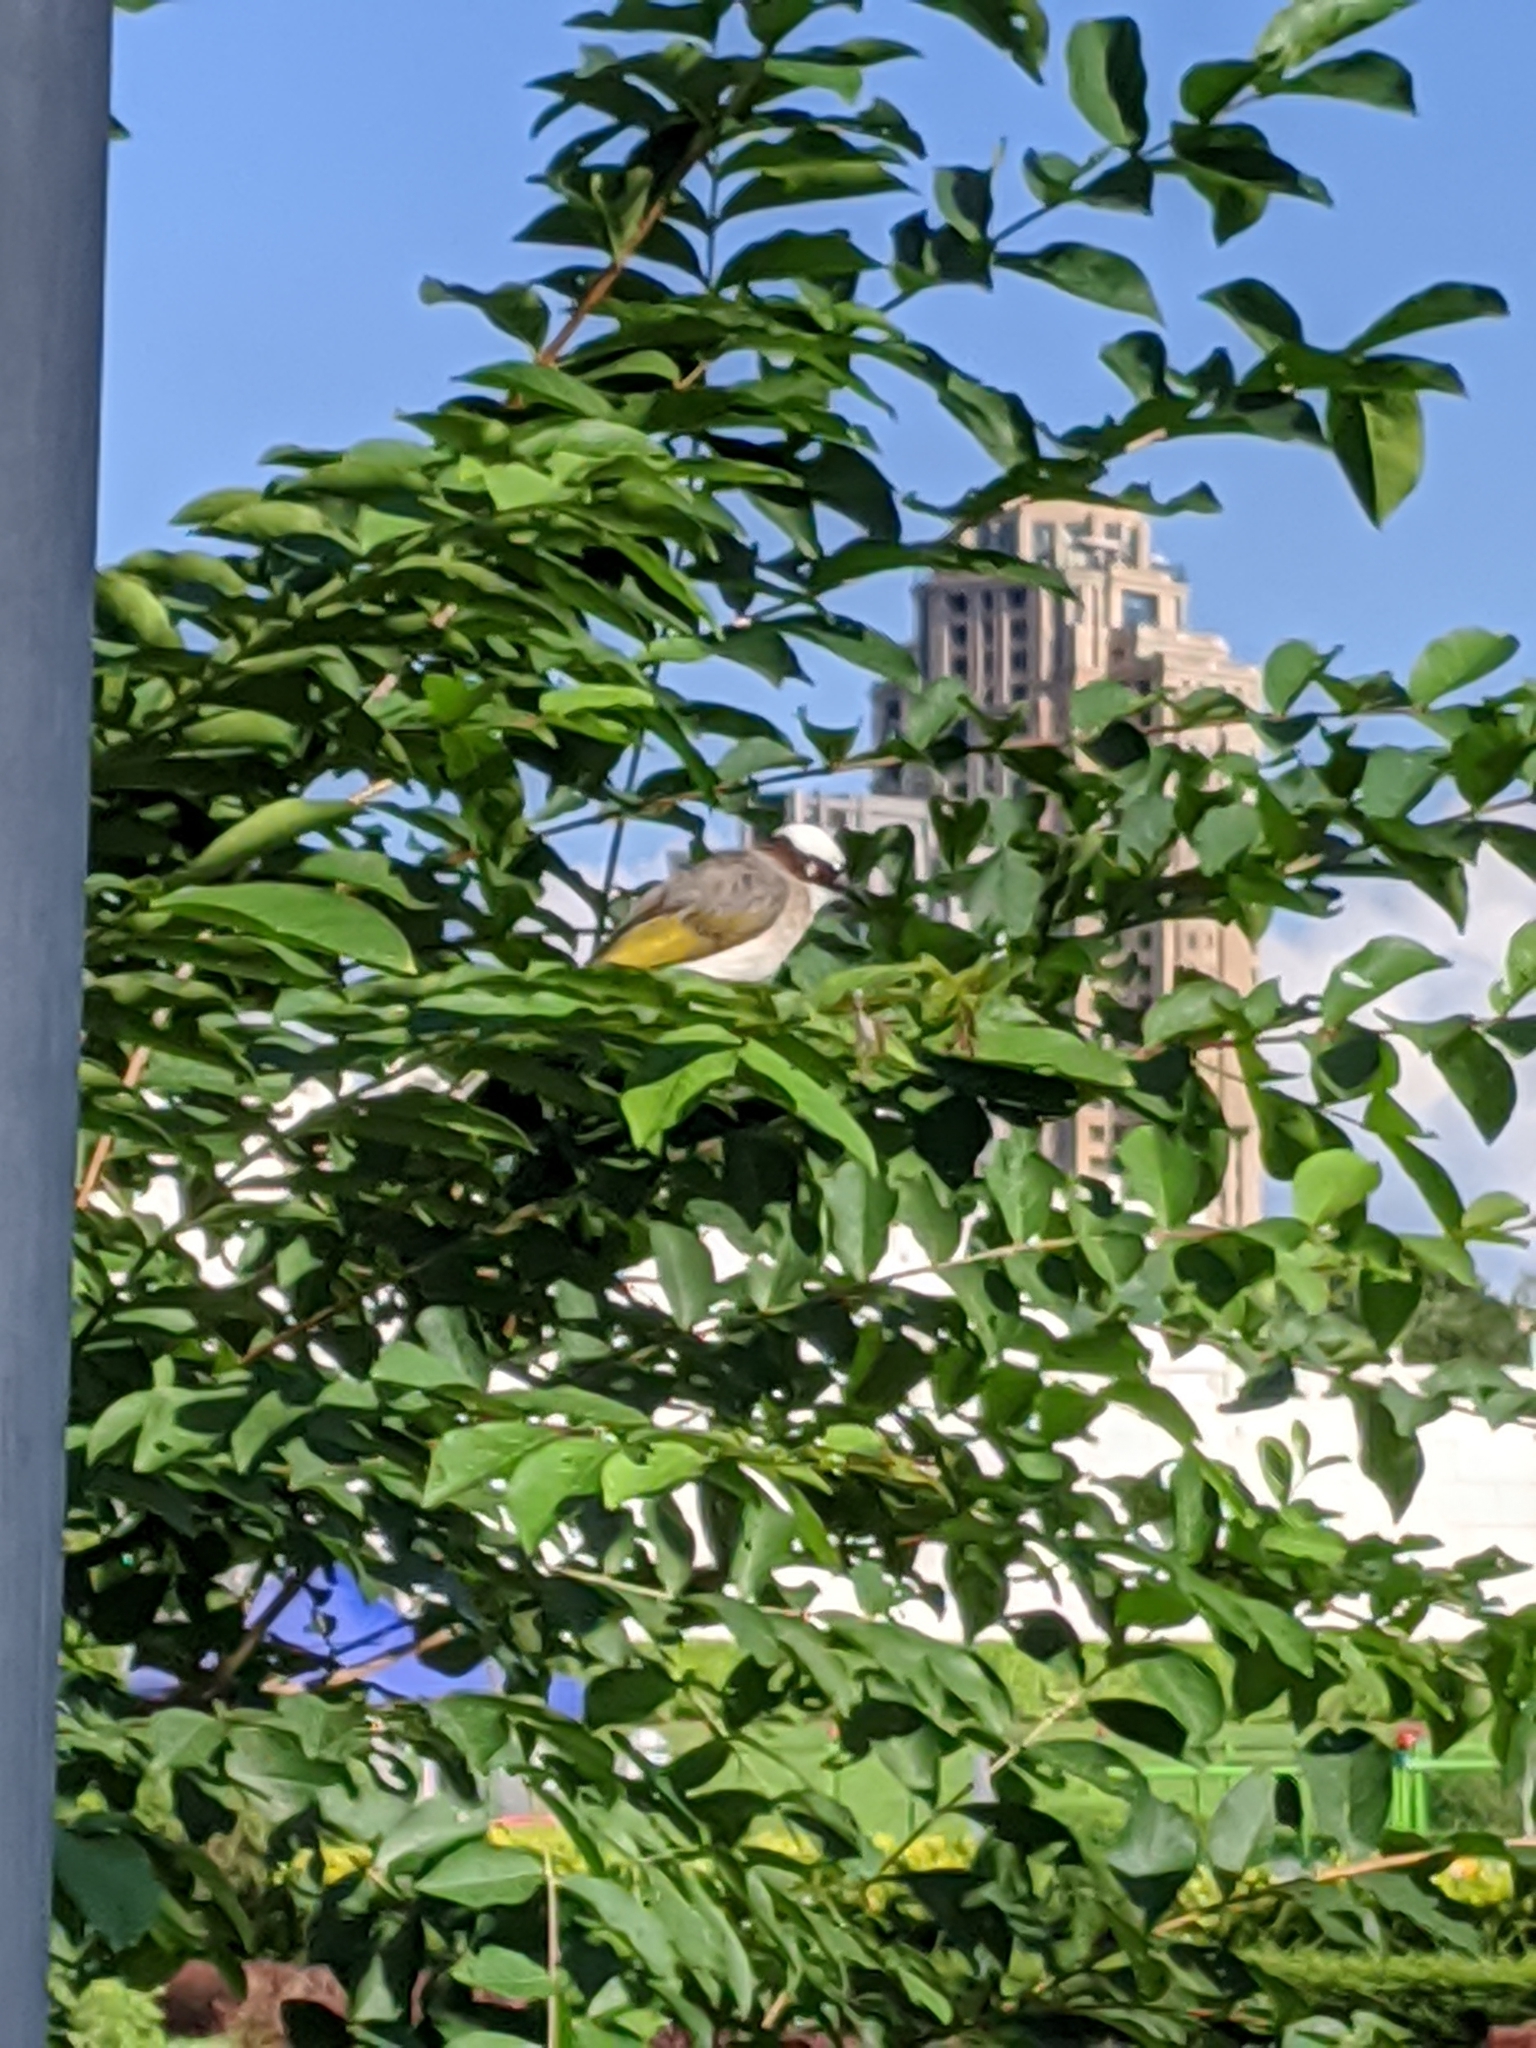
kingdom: Animalia
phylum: Chordata
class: Aves
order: Passeriformes
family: Pycnonotidae
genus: Pycnonotus
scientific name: Pycnonotus sinensis
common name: Light-vented bulbul
